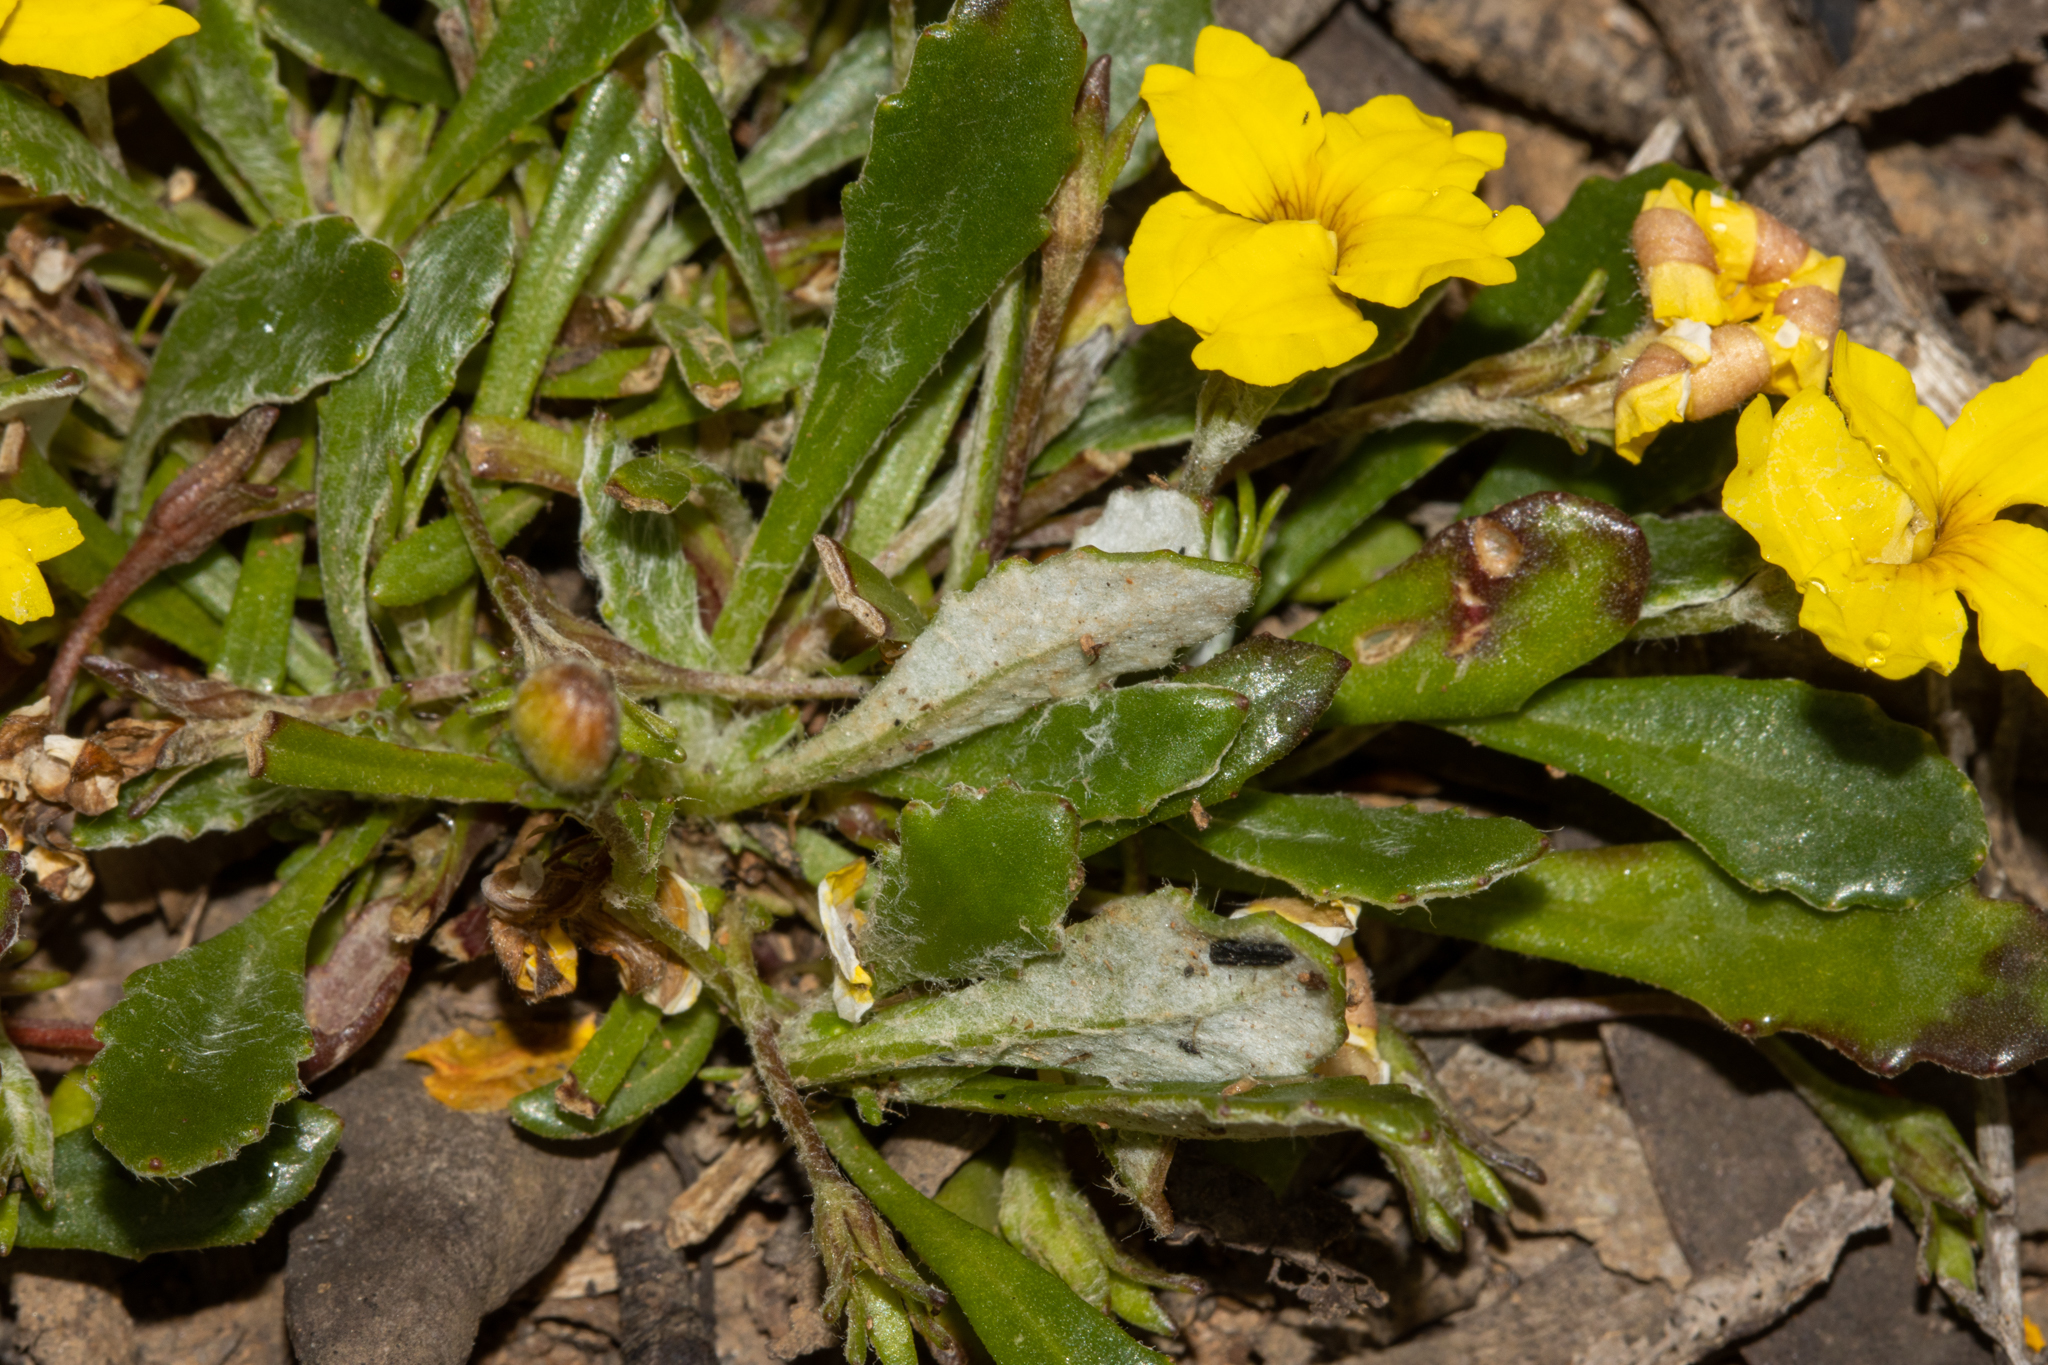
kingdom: Plantae
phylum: Tracheophyta
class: Magnoliopsida
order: Asterales
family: Goodeniaceae
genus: Goodenia
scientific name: Goodenia blackiana
